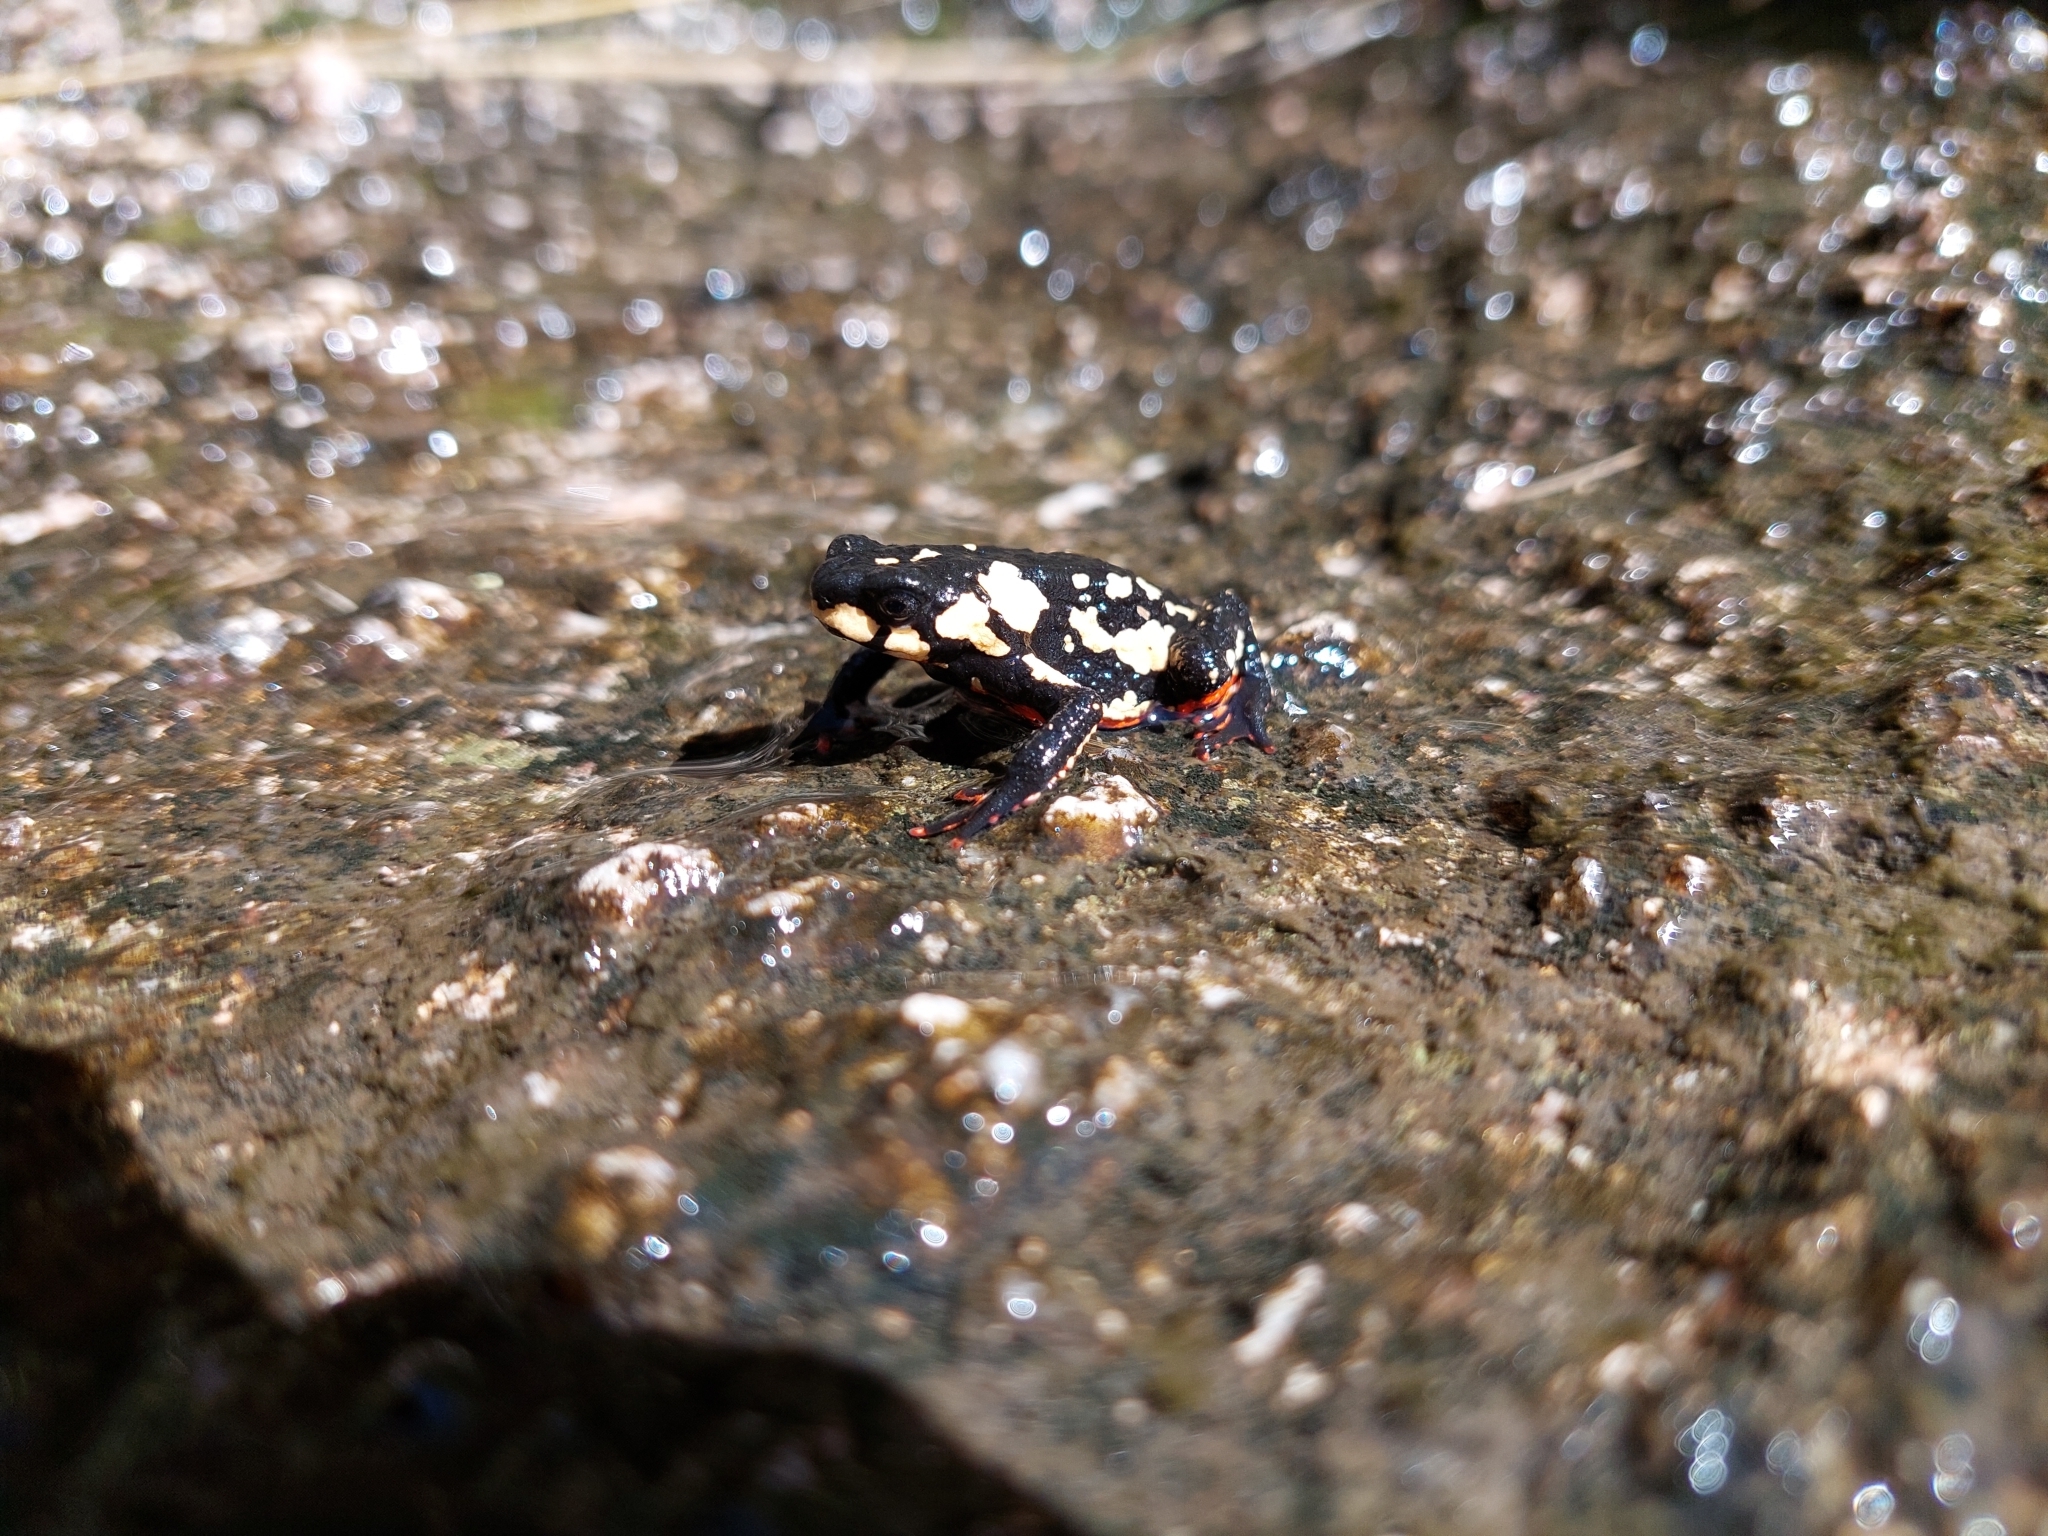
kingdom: Animalia
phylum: Chordata
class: Amphibia
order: Anura
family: Bufonidae
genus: Melanophryniscus
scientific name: Melanophryniscus stelzneri
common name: Redbelly toad
